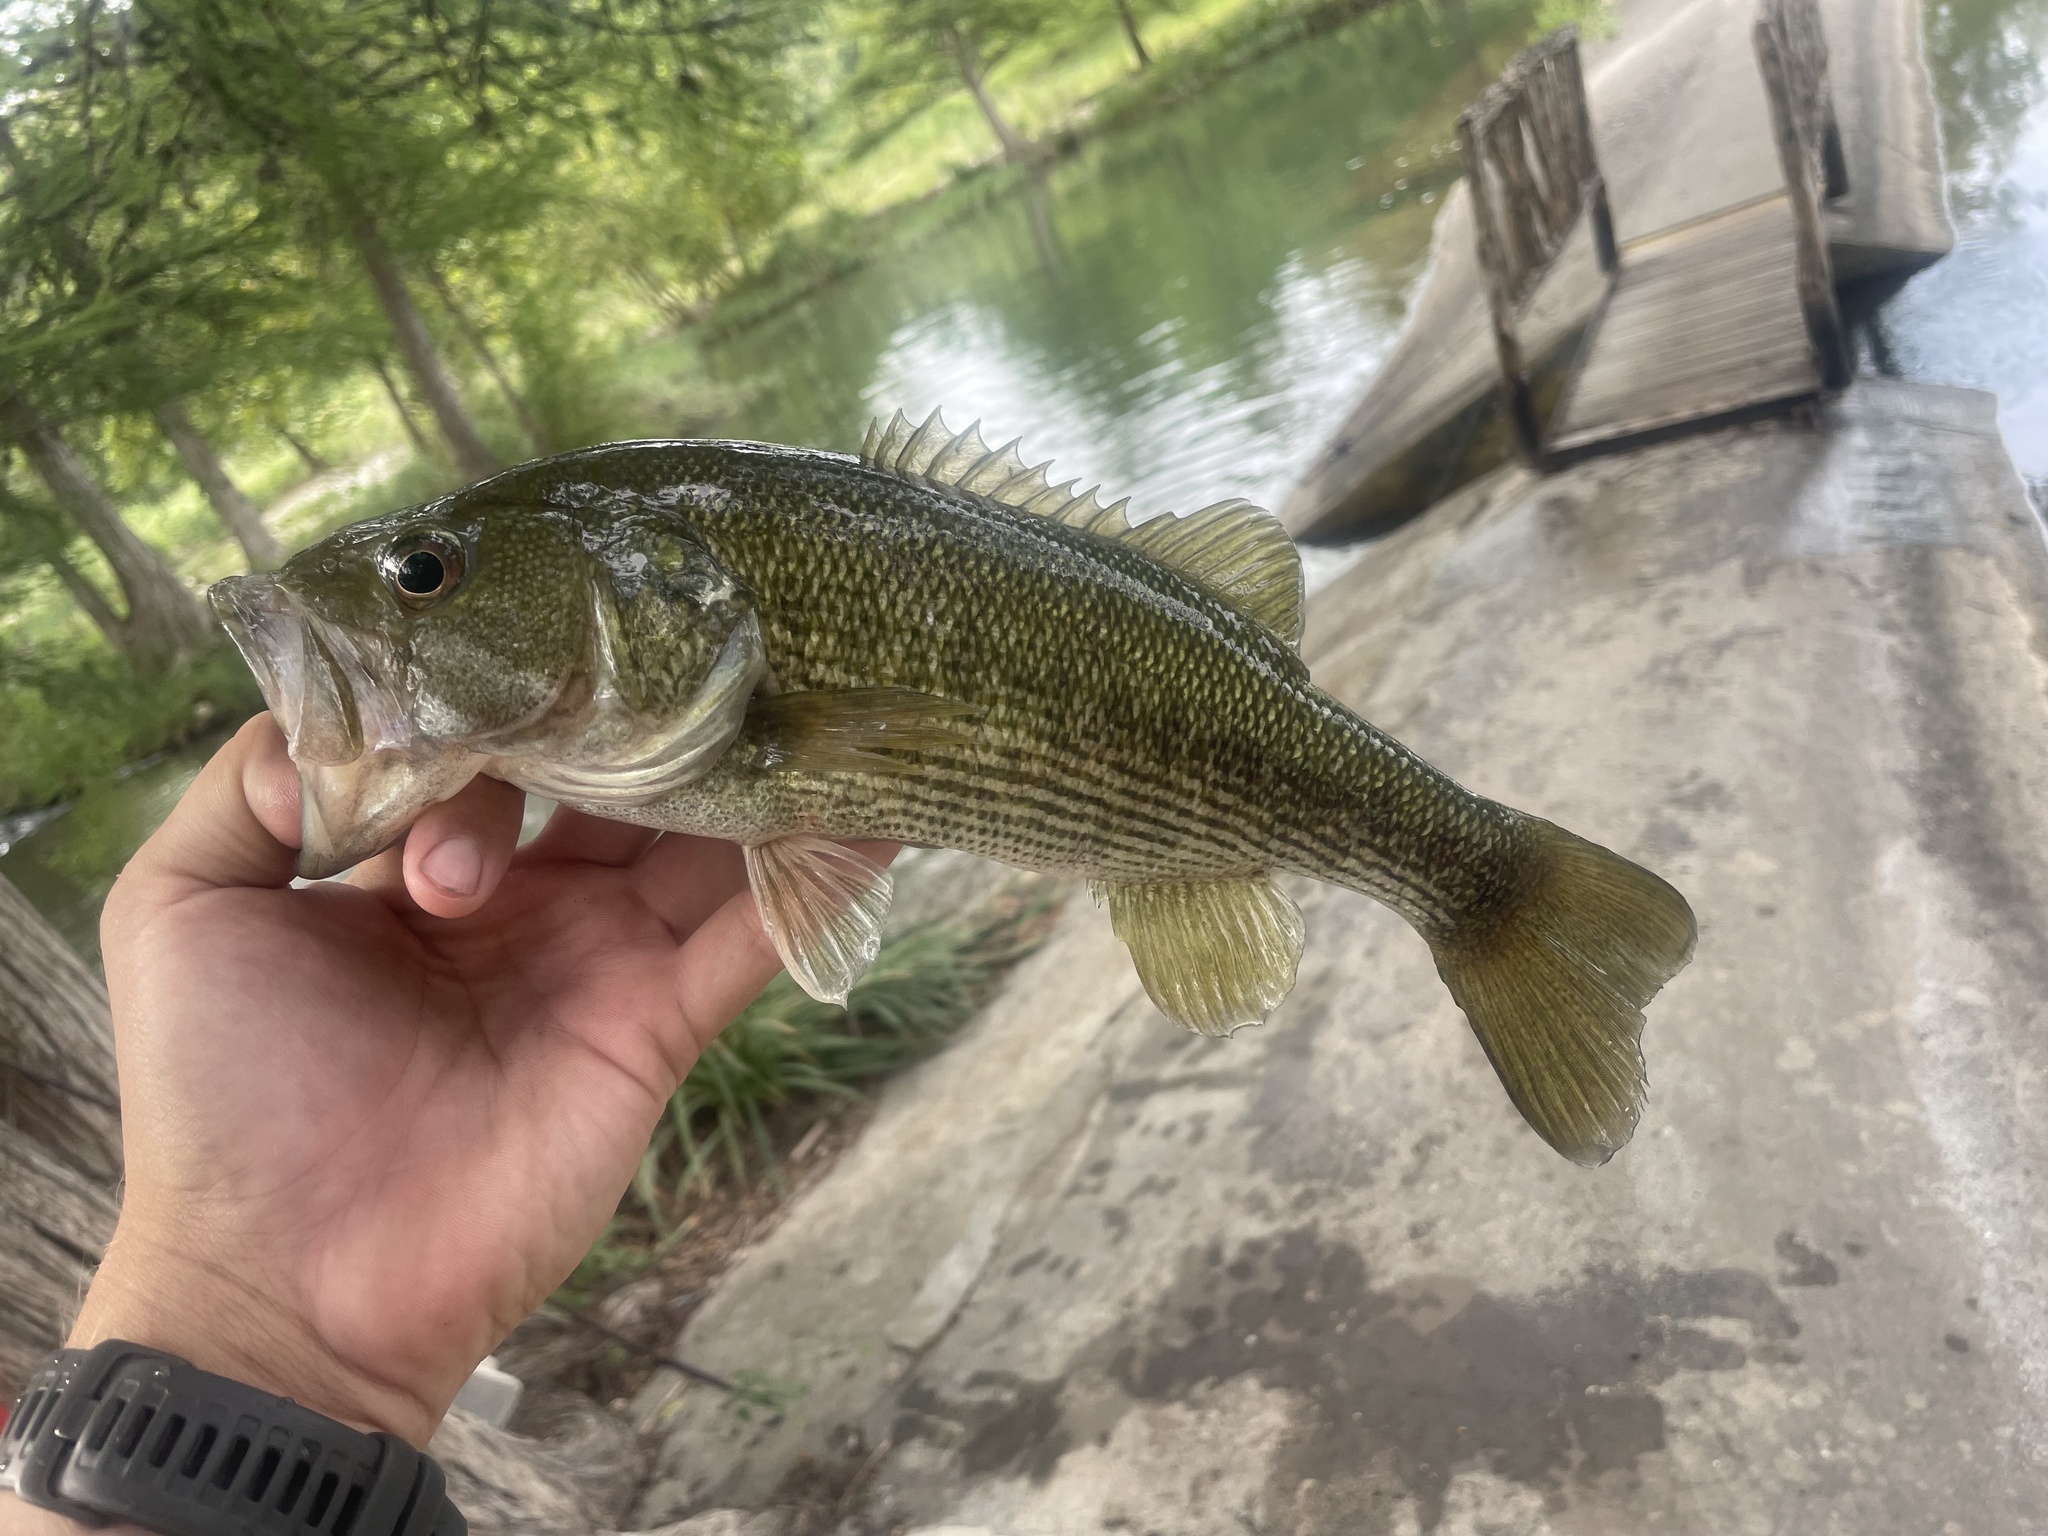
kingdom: Animalia
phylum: Chordata
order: Perciformes
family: Centrarchidae
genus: Micropterus
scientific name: Micropterus treculii
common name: Guadalupe bass
